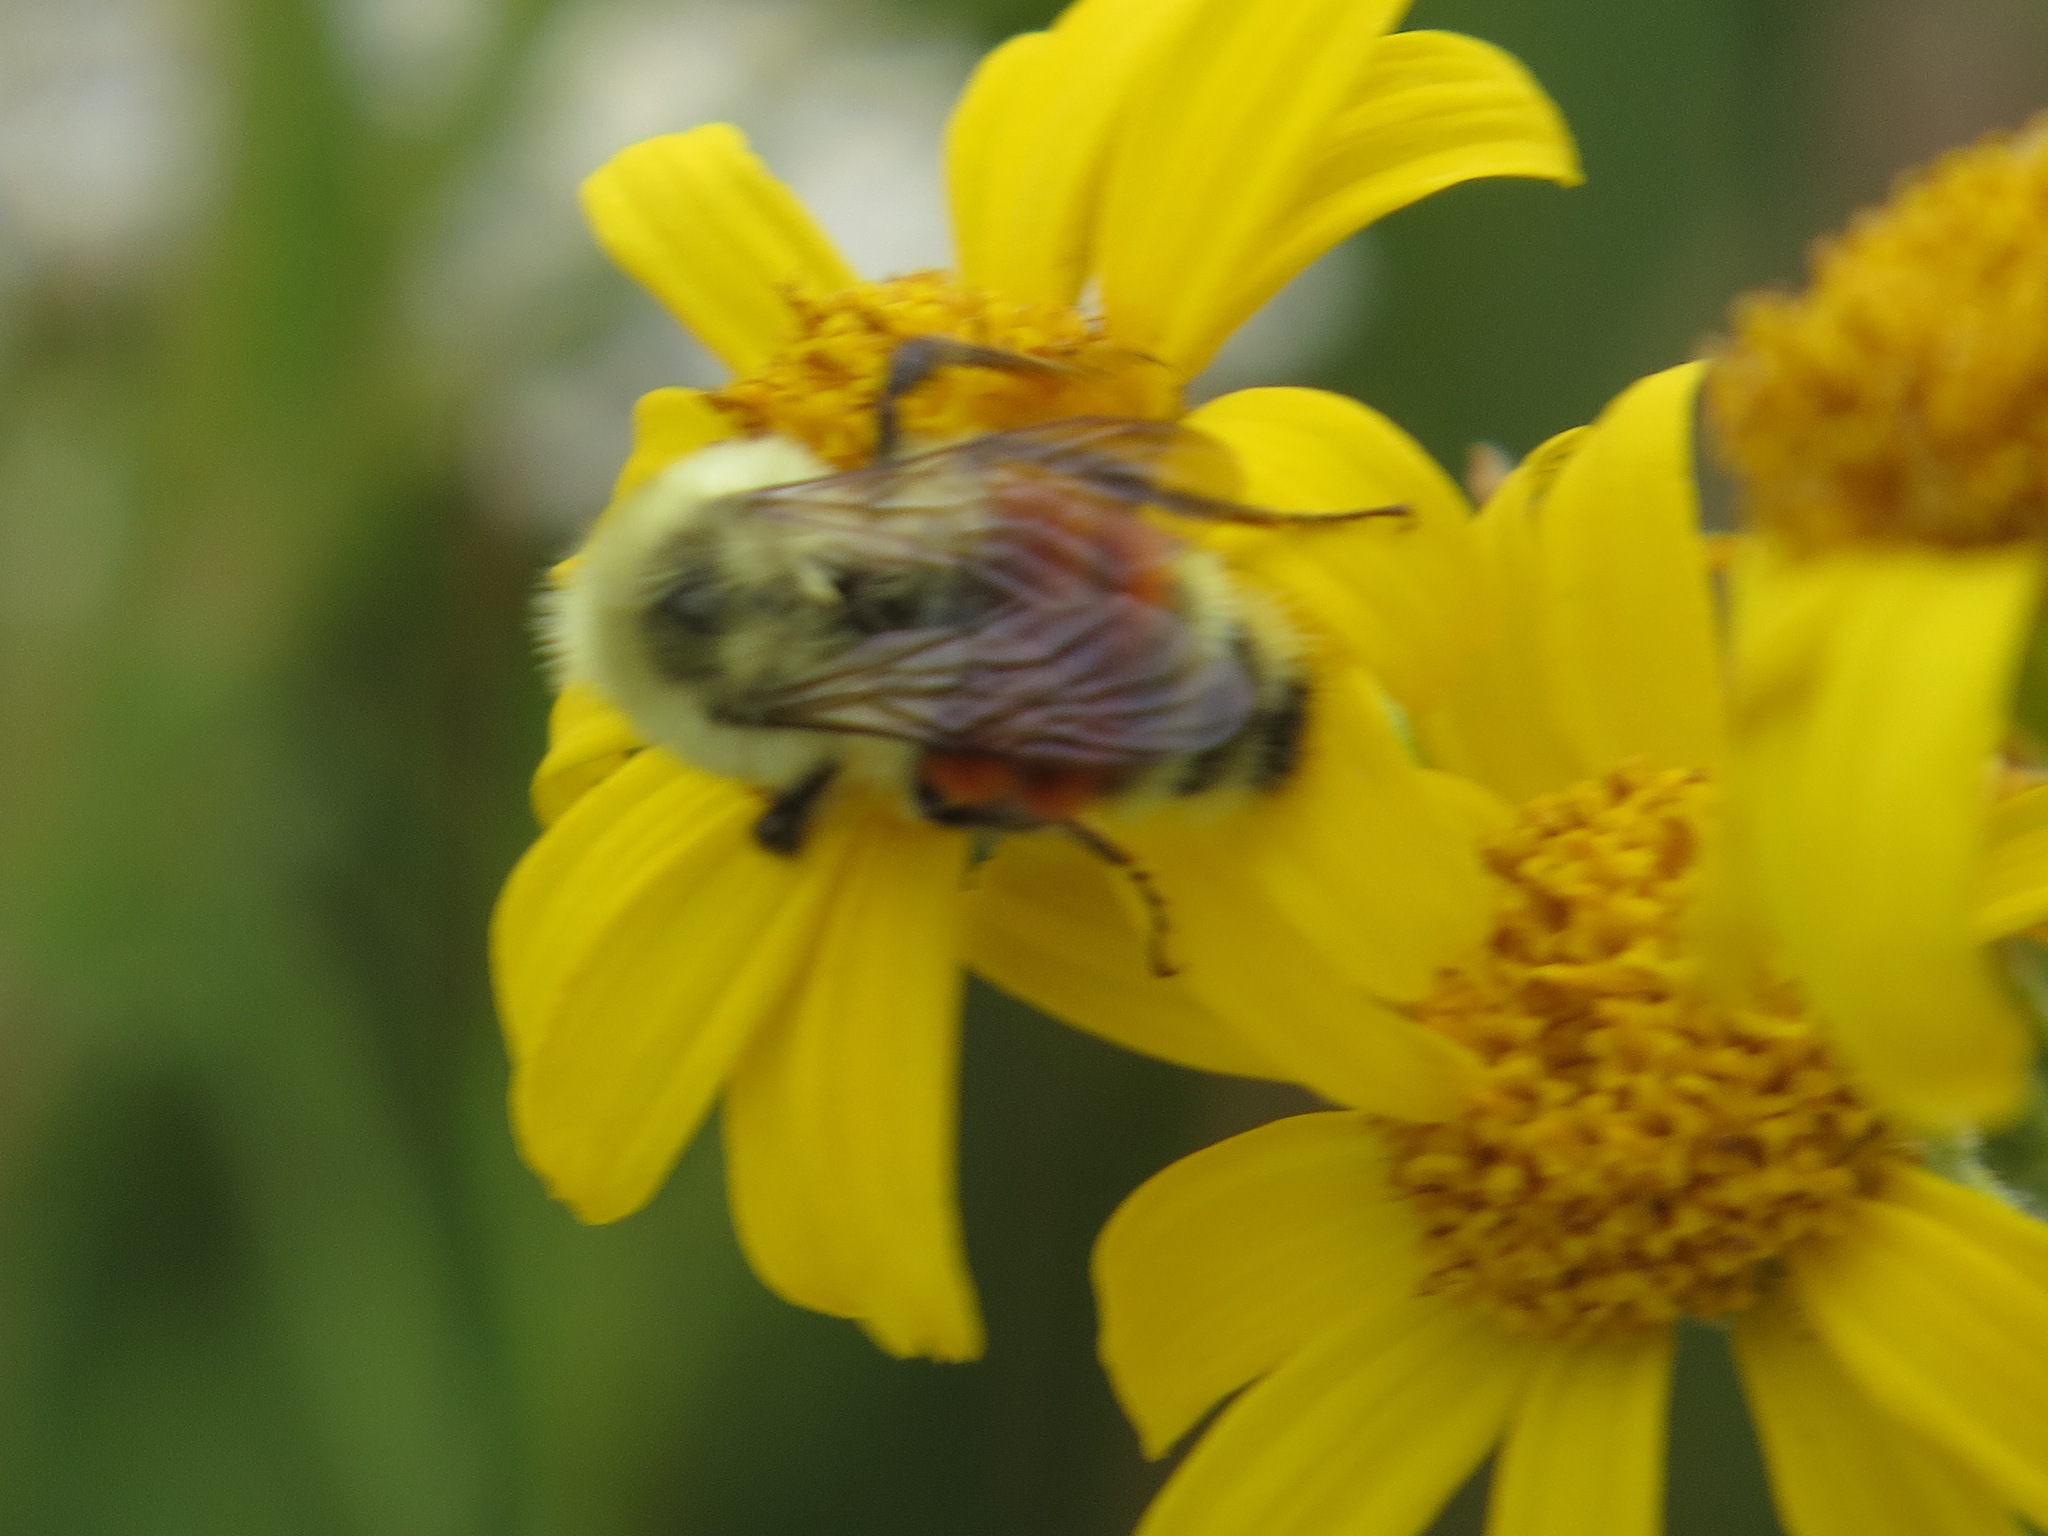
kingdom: Animalia
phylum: Arthropoda
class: Insecta
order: Hymenoptera
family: Apidae
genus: Bombus
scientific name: Bombus huntii
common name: Hunt bumble bee
